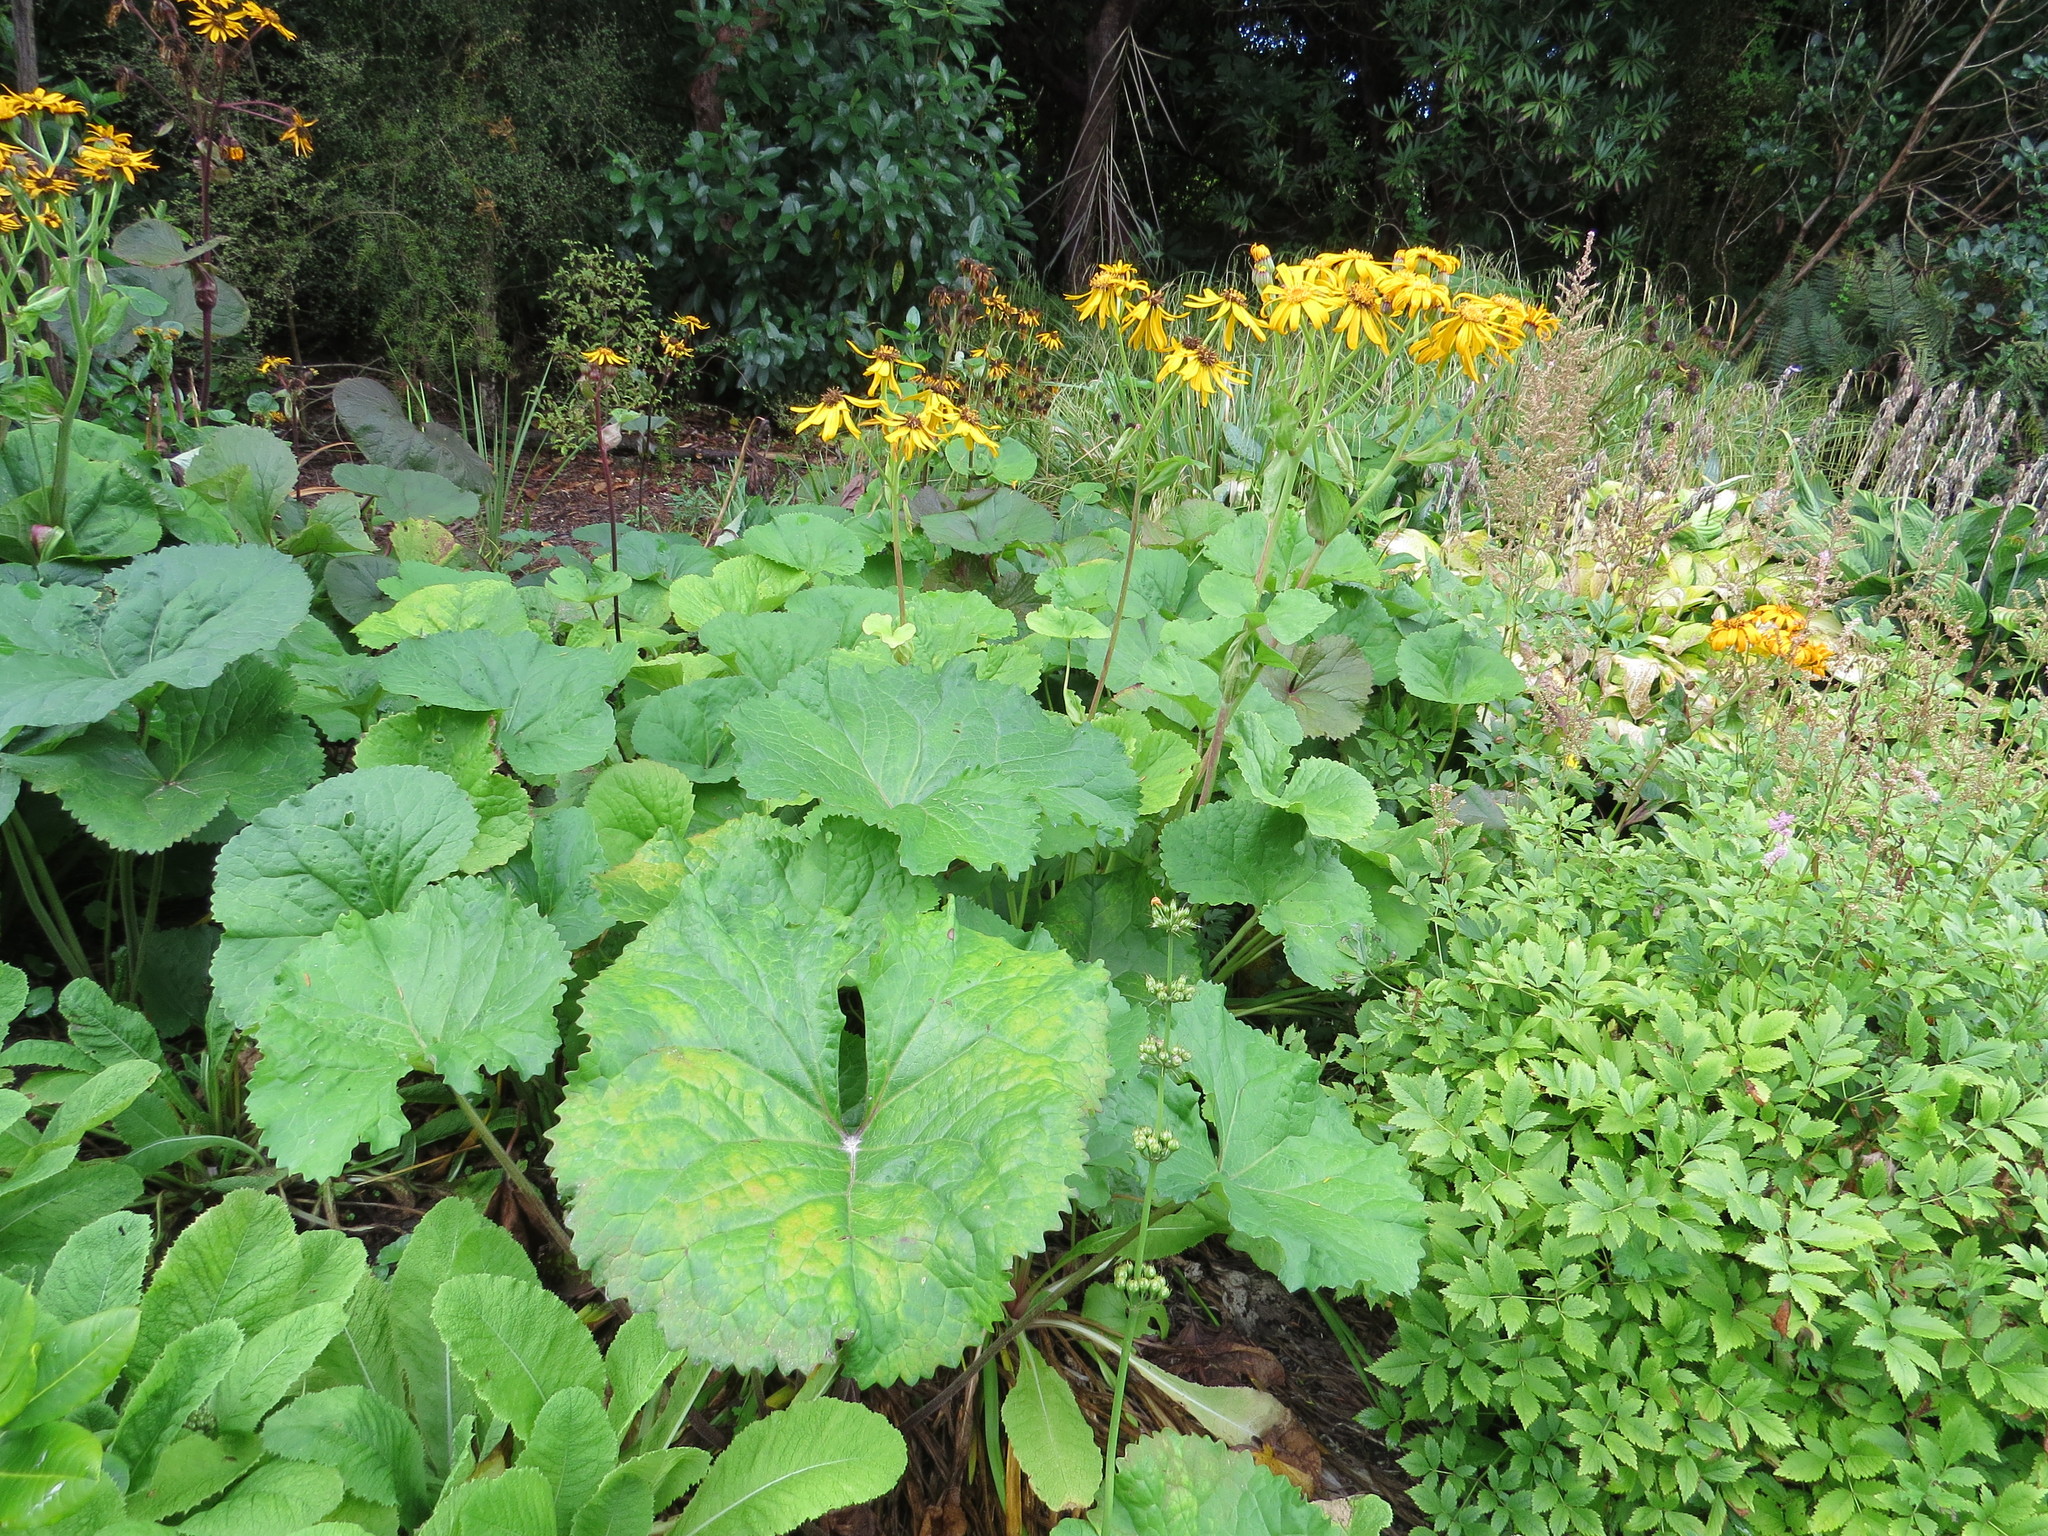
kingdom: Plantae
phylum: Tracheophyta
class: Magnoliopsida
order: Asterales
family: Asteraceae
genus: Ligularia
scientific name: Ligularia dentata
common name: Leopardplant
